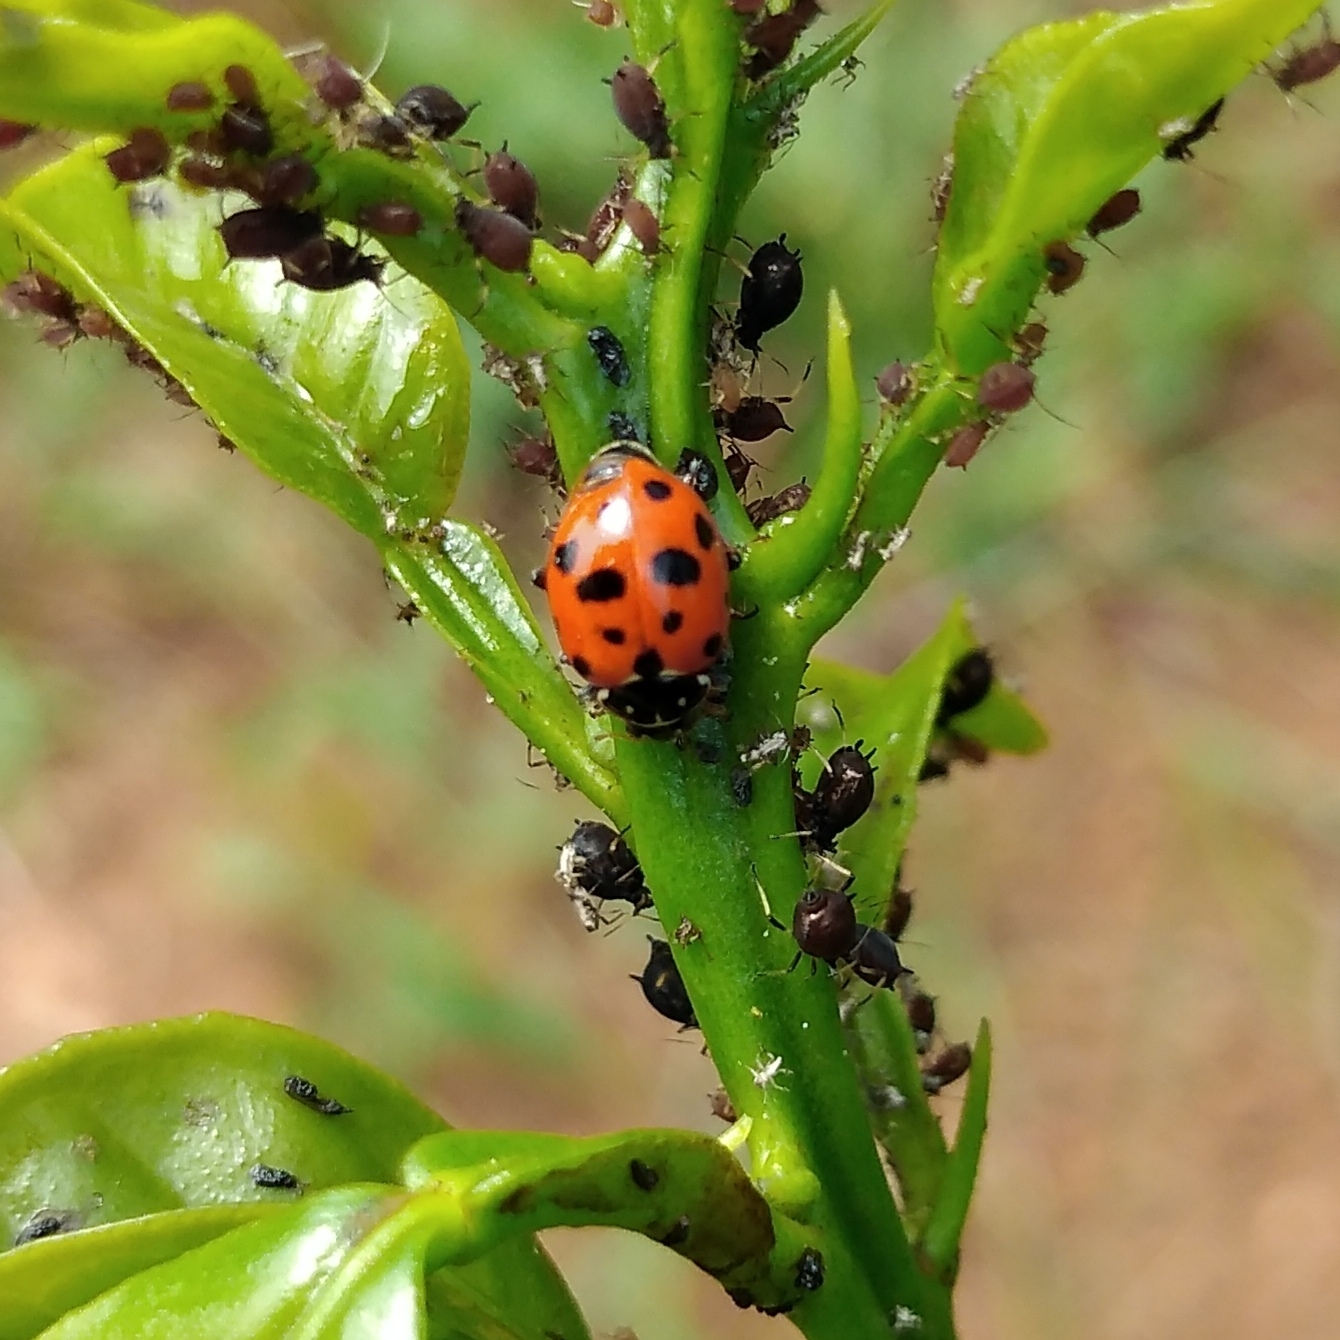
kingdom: Animalia
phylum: Arthropoda
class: Insecta
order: Coleoptera
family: Coccinellidae
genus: Hippodamia
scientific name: Hippodamia variegata
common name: Ladybird beetle
